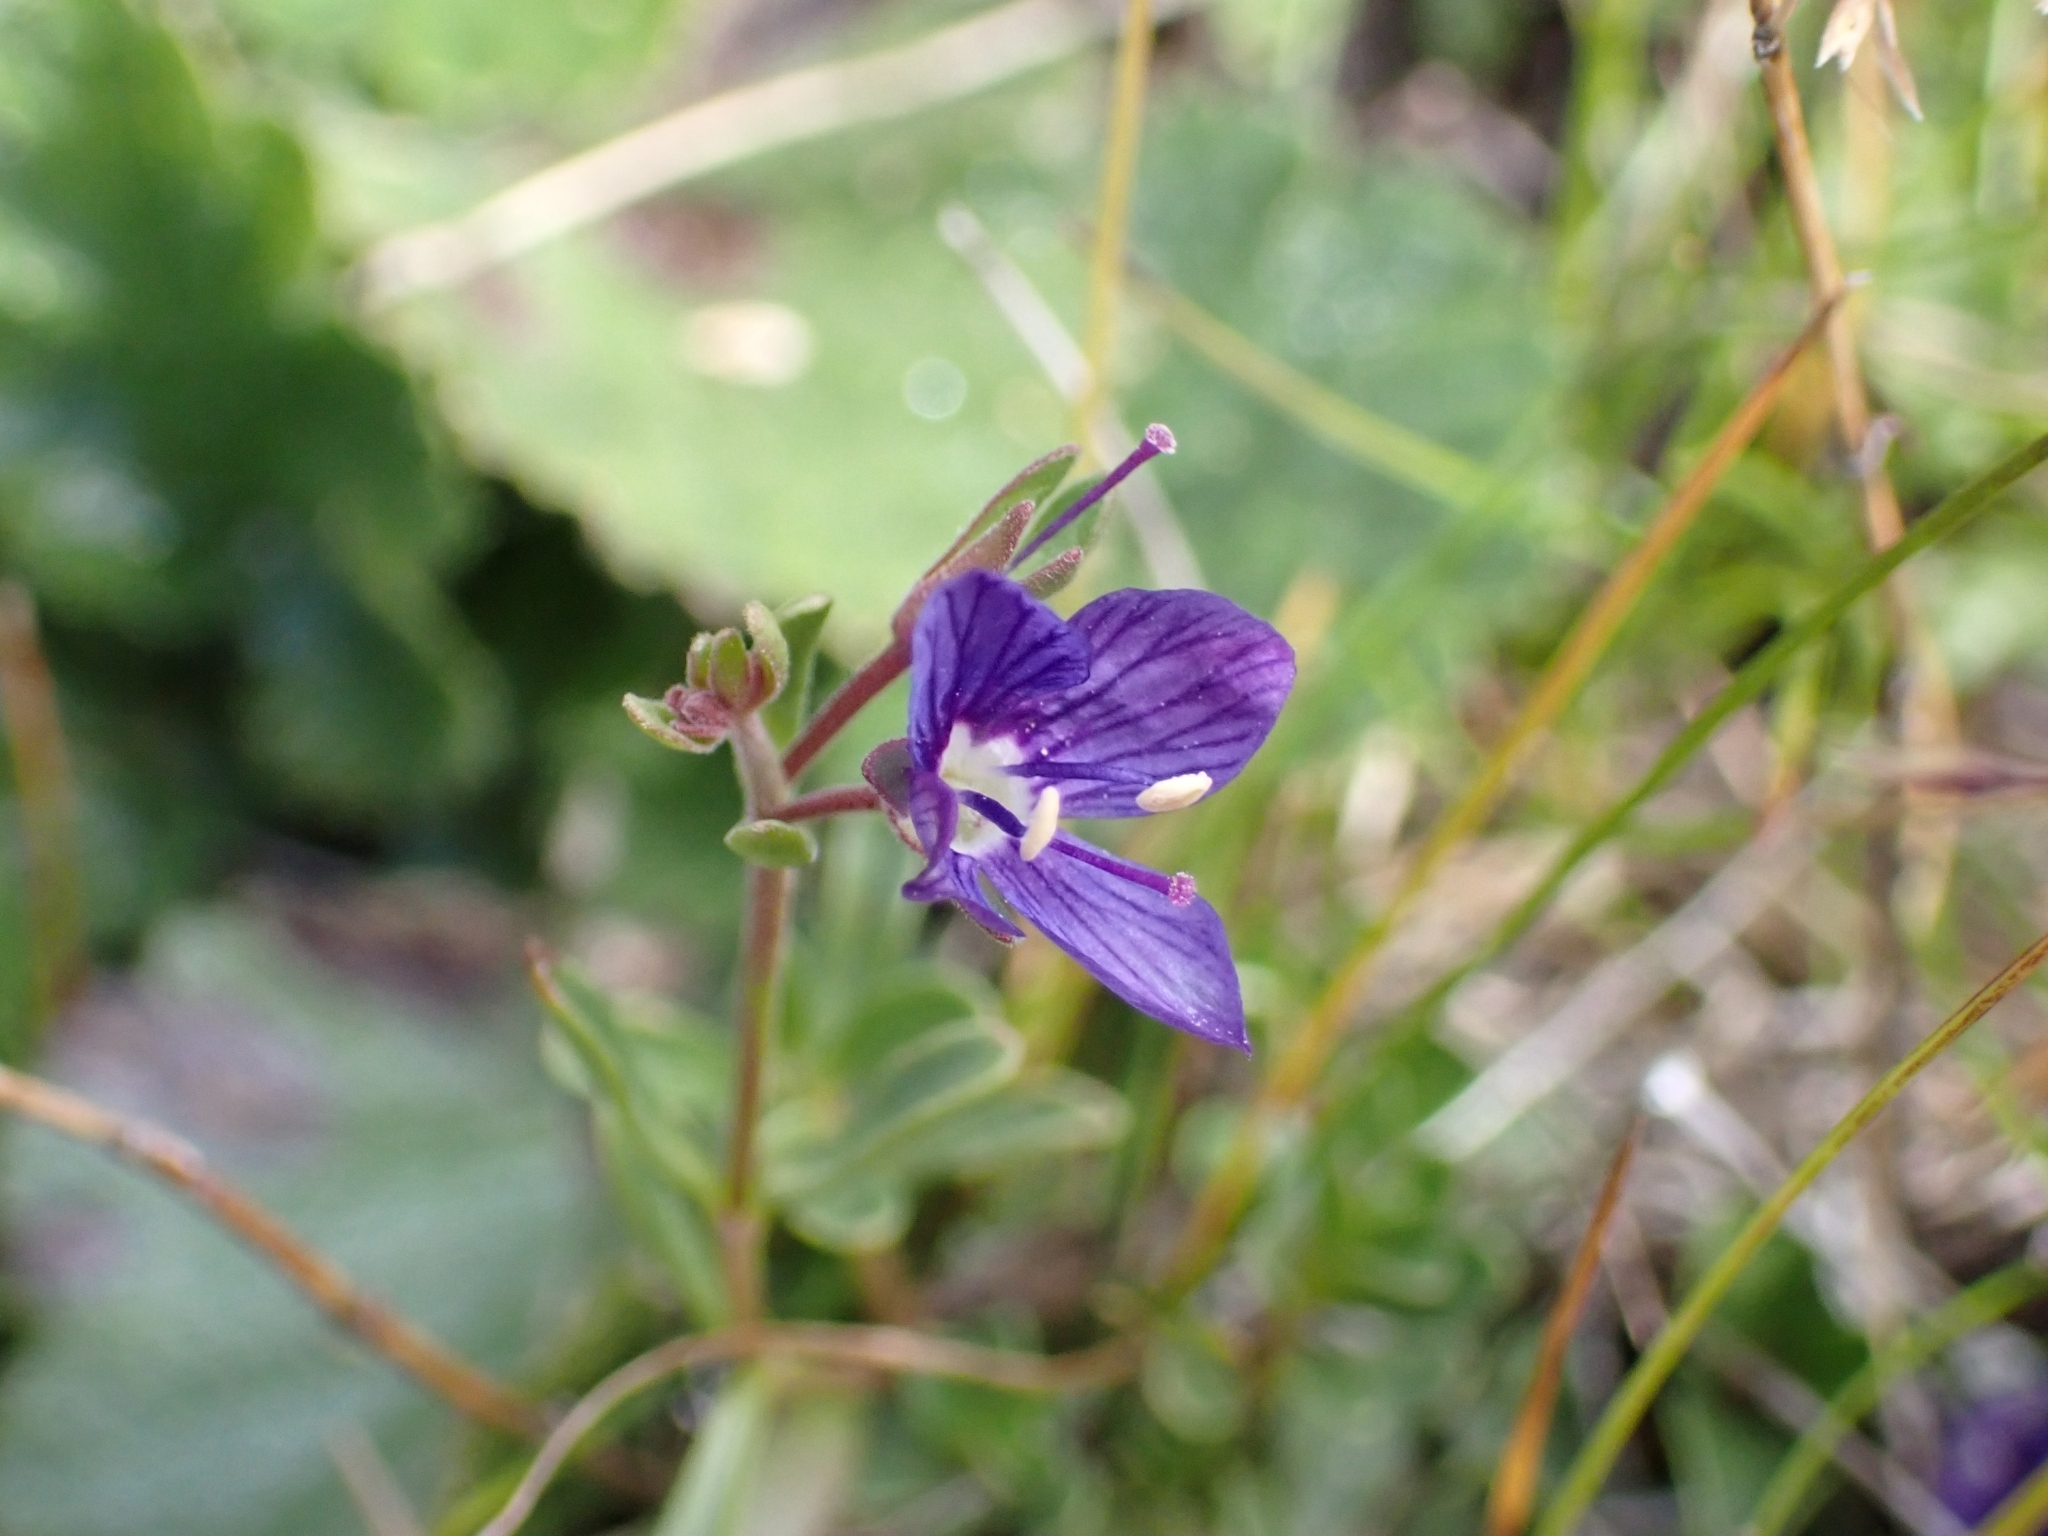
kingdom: Plantae
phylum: Tracheophyta
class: Magnoliopsida
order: Lamiales
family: Plantaginaceae
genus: Veronica
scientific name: Veronica fruticans
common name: Rock speedwell
